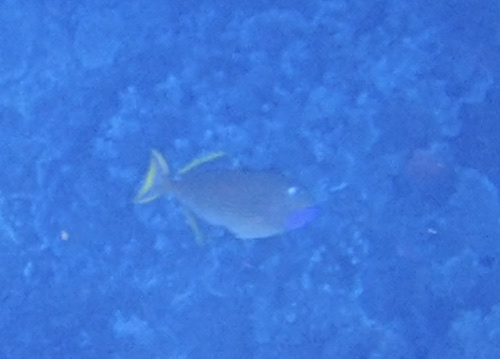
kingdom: Animalia
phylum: Chordata
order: Tetraodontiformes
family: Balistidae
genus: Xanthichthys
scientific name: Xanthichthys auromarginatus
